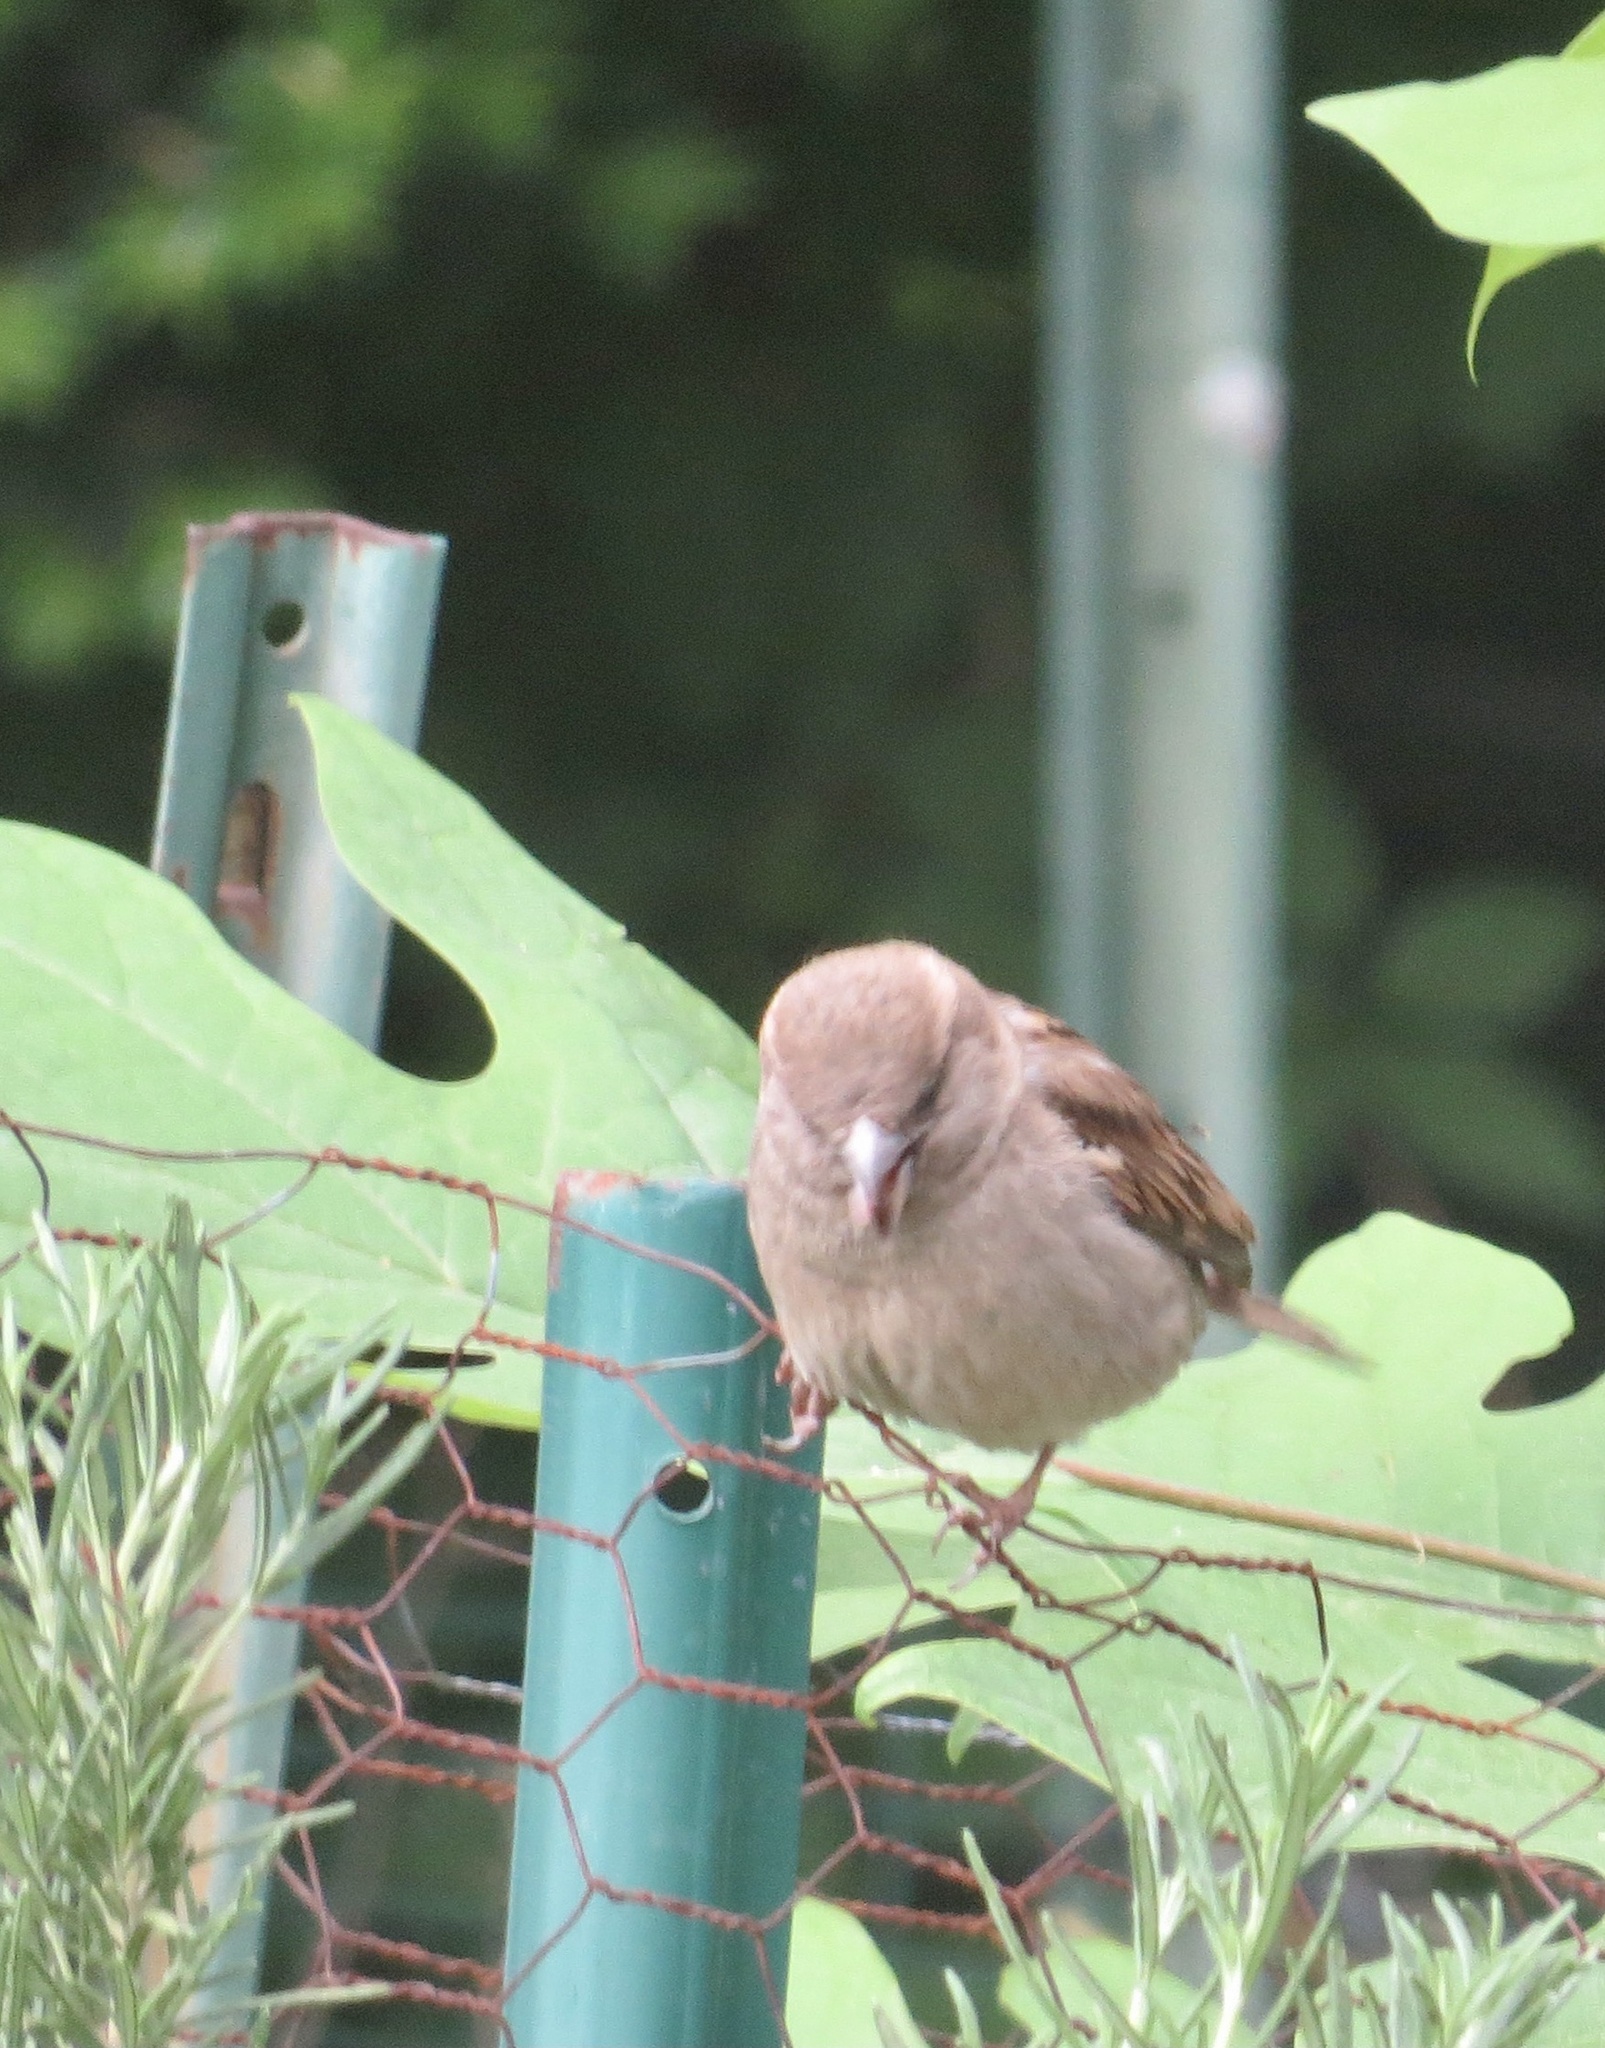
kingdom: Animalia
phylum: Chordata
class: Aves
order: Passeriformes
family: Passeridae
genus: Passer
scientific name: Passer domesticus
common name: House sparrow
